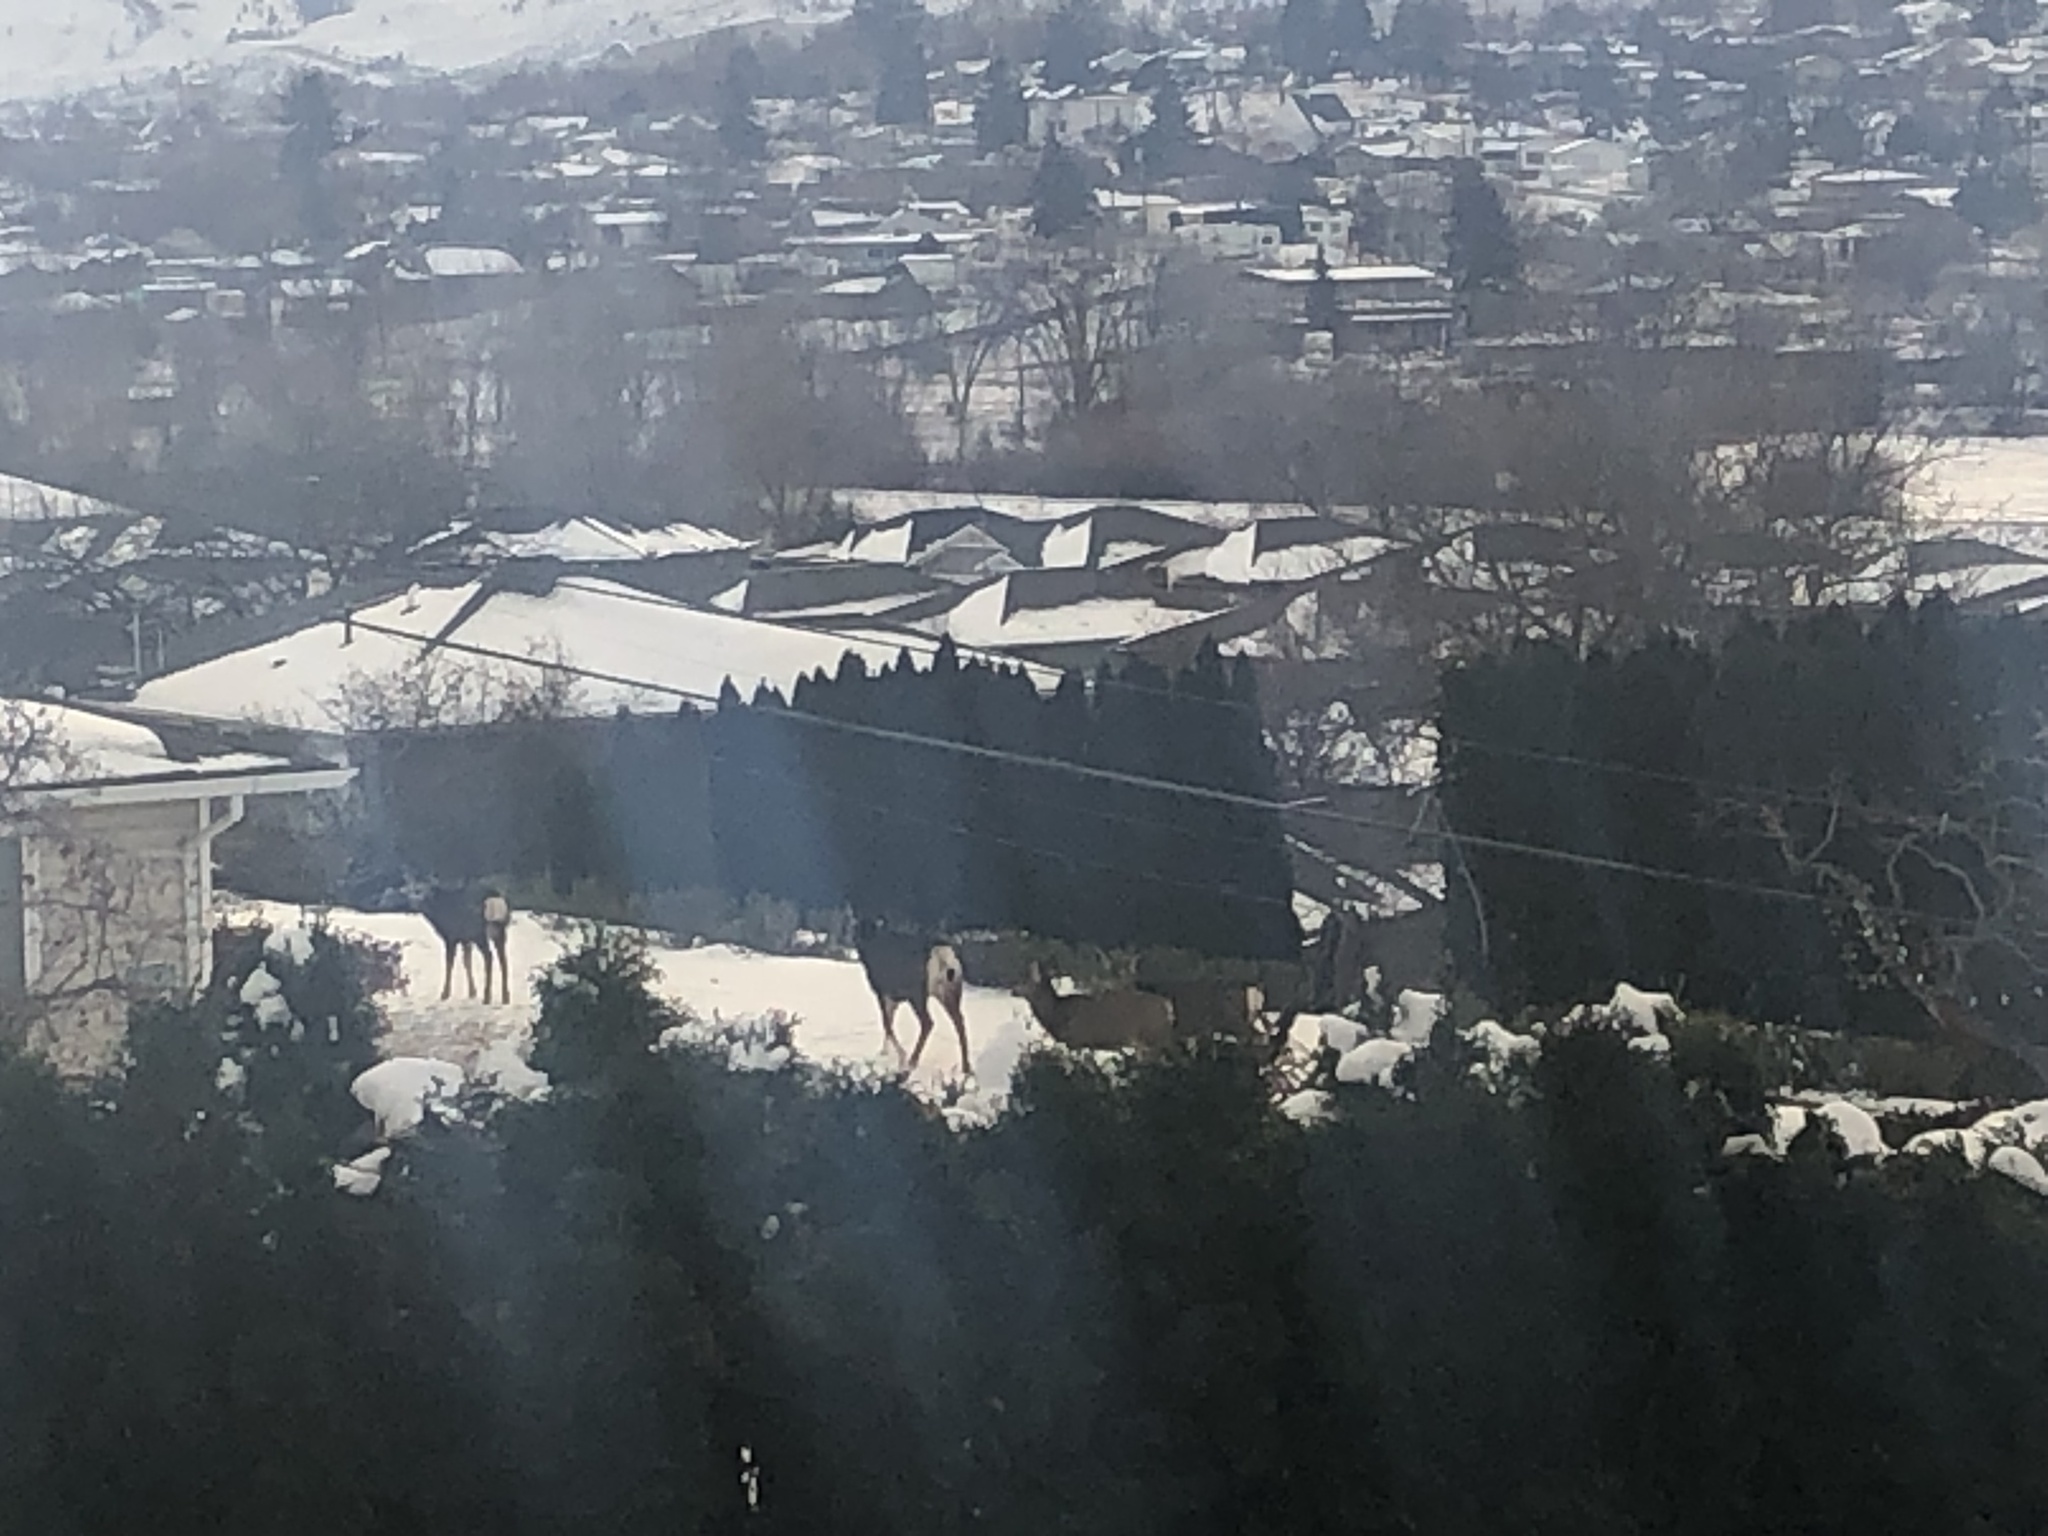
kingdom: Animalia
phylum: Chordata
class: Mammalia
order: Artiodactyla
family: Cervidae
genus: Odocoileus
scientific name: Odocoileus hemionus
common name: Mule deer
